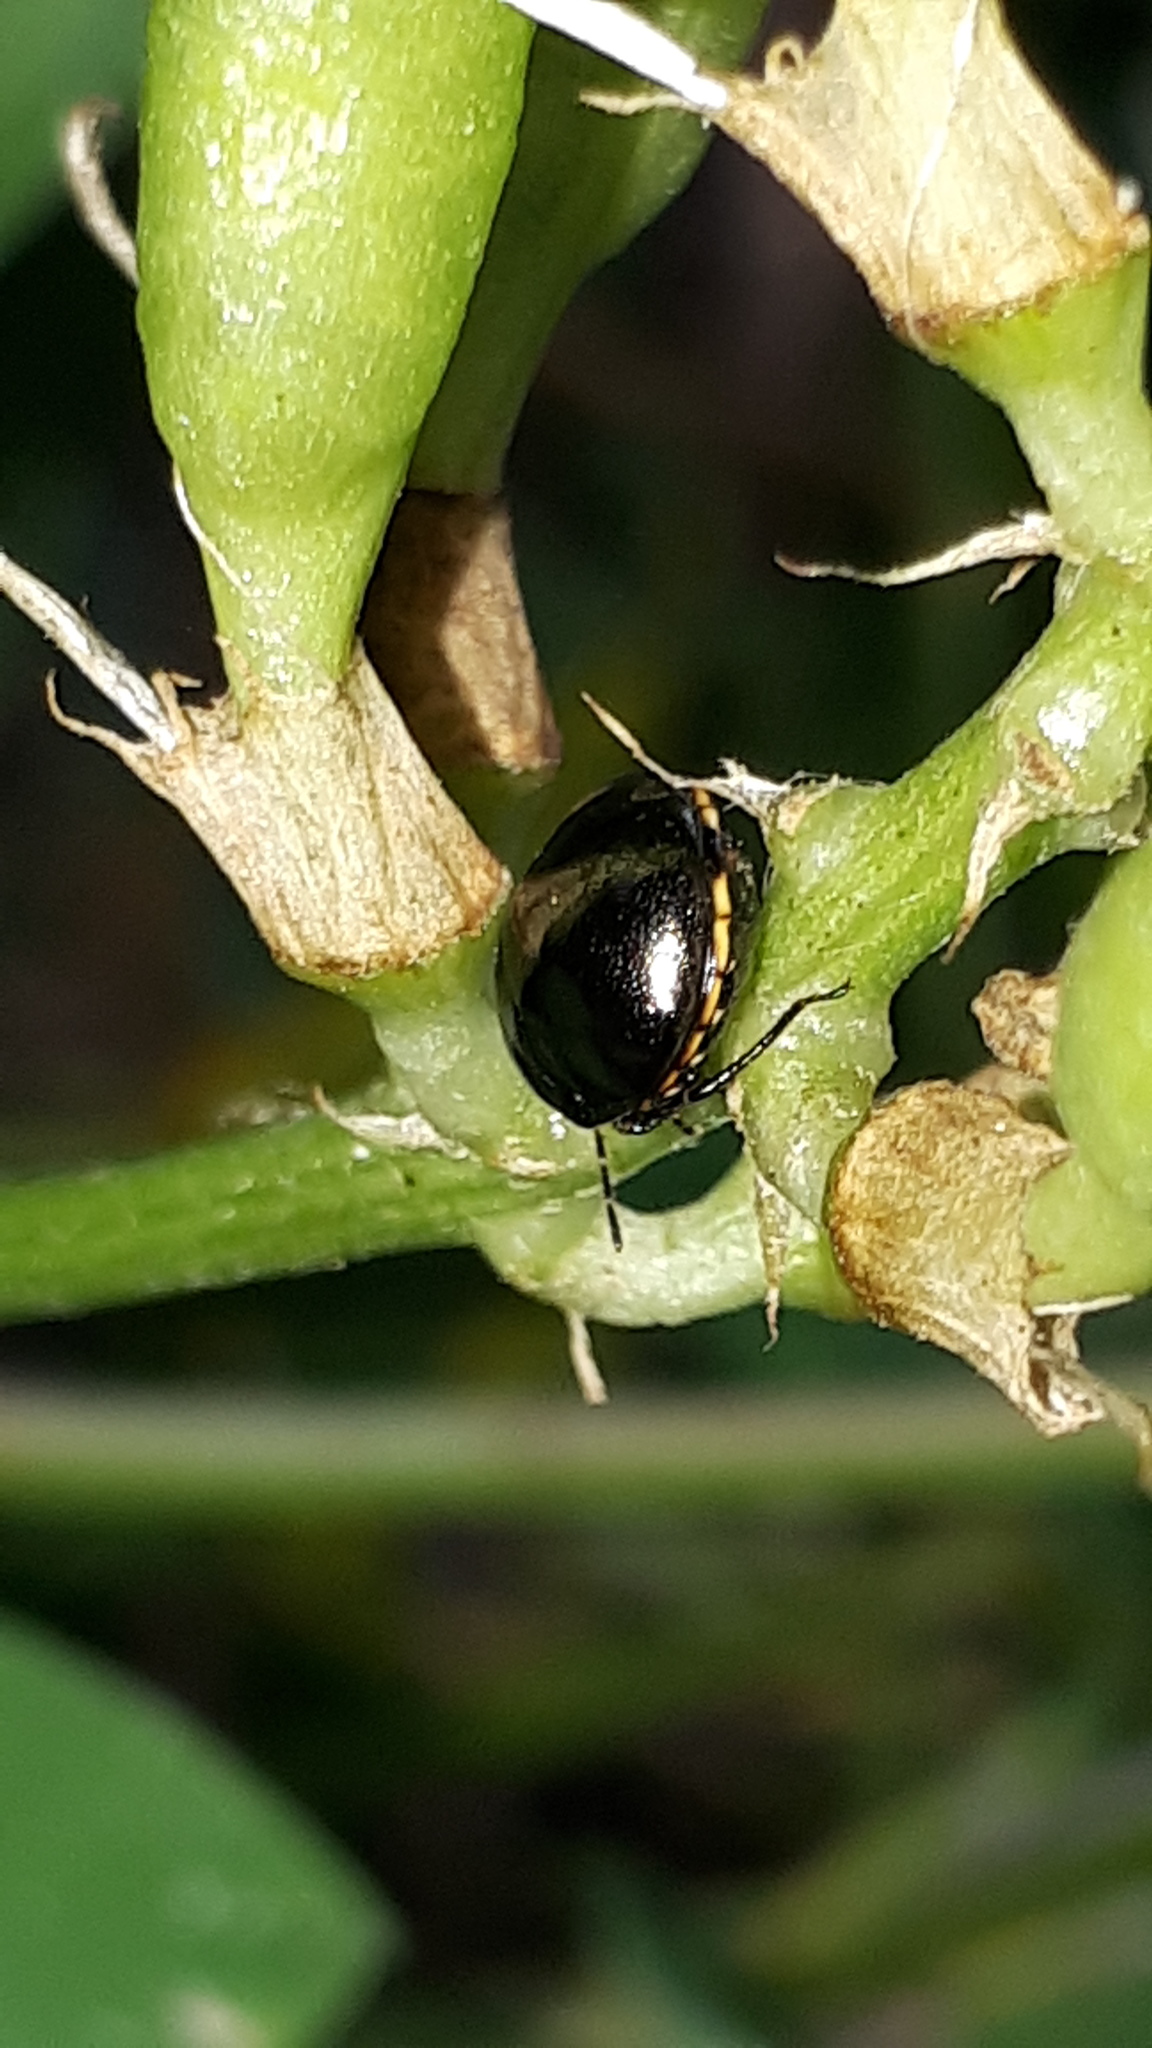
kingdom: Animalia
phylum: Arthropoda
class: Insecta
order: Hemiptera
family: Plataspidae
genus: Coptosoma
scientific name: Coptosoma scutellatum
